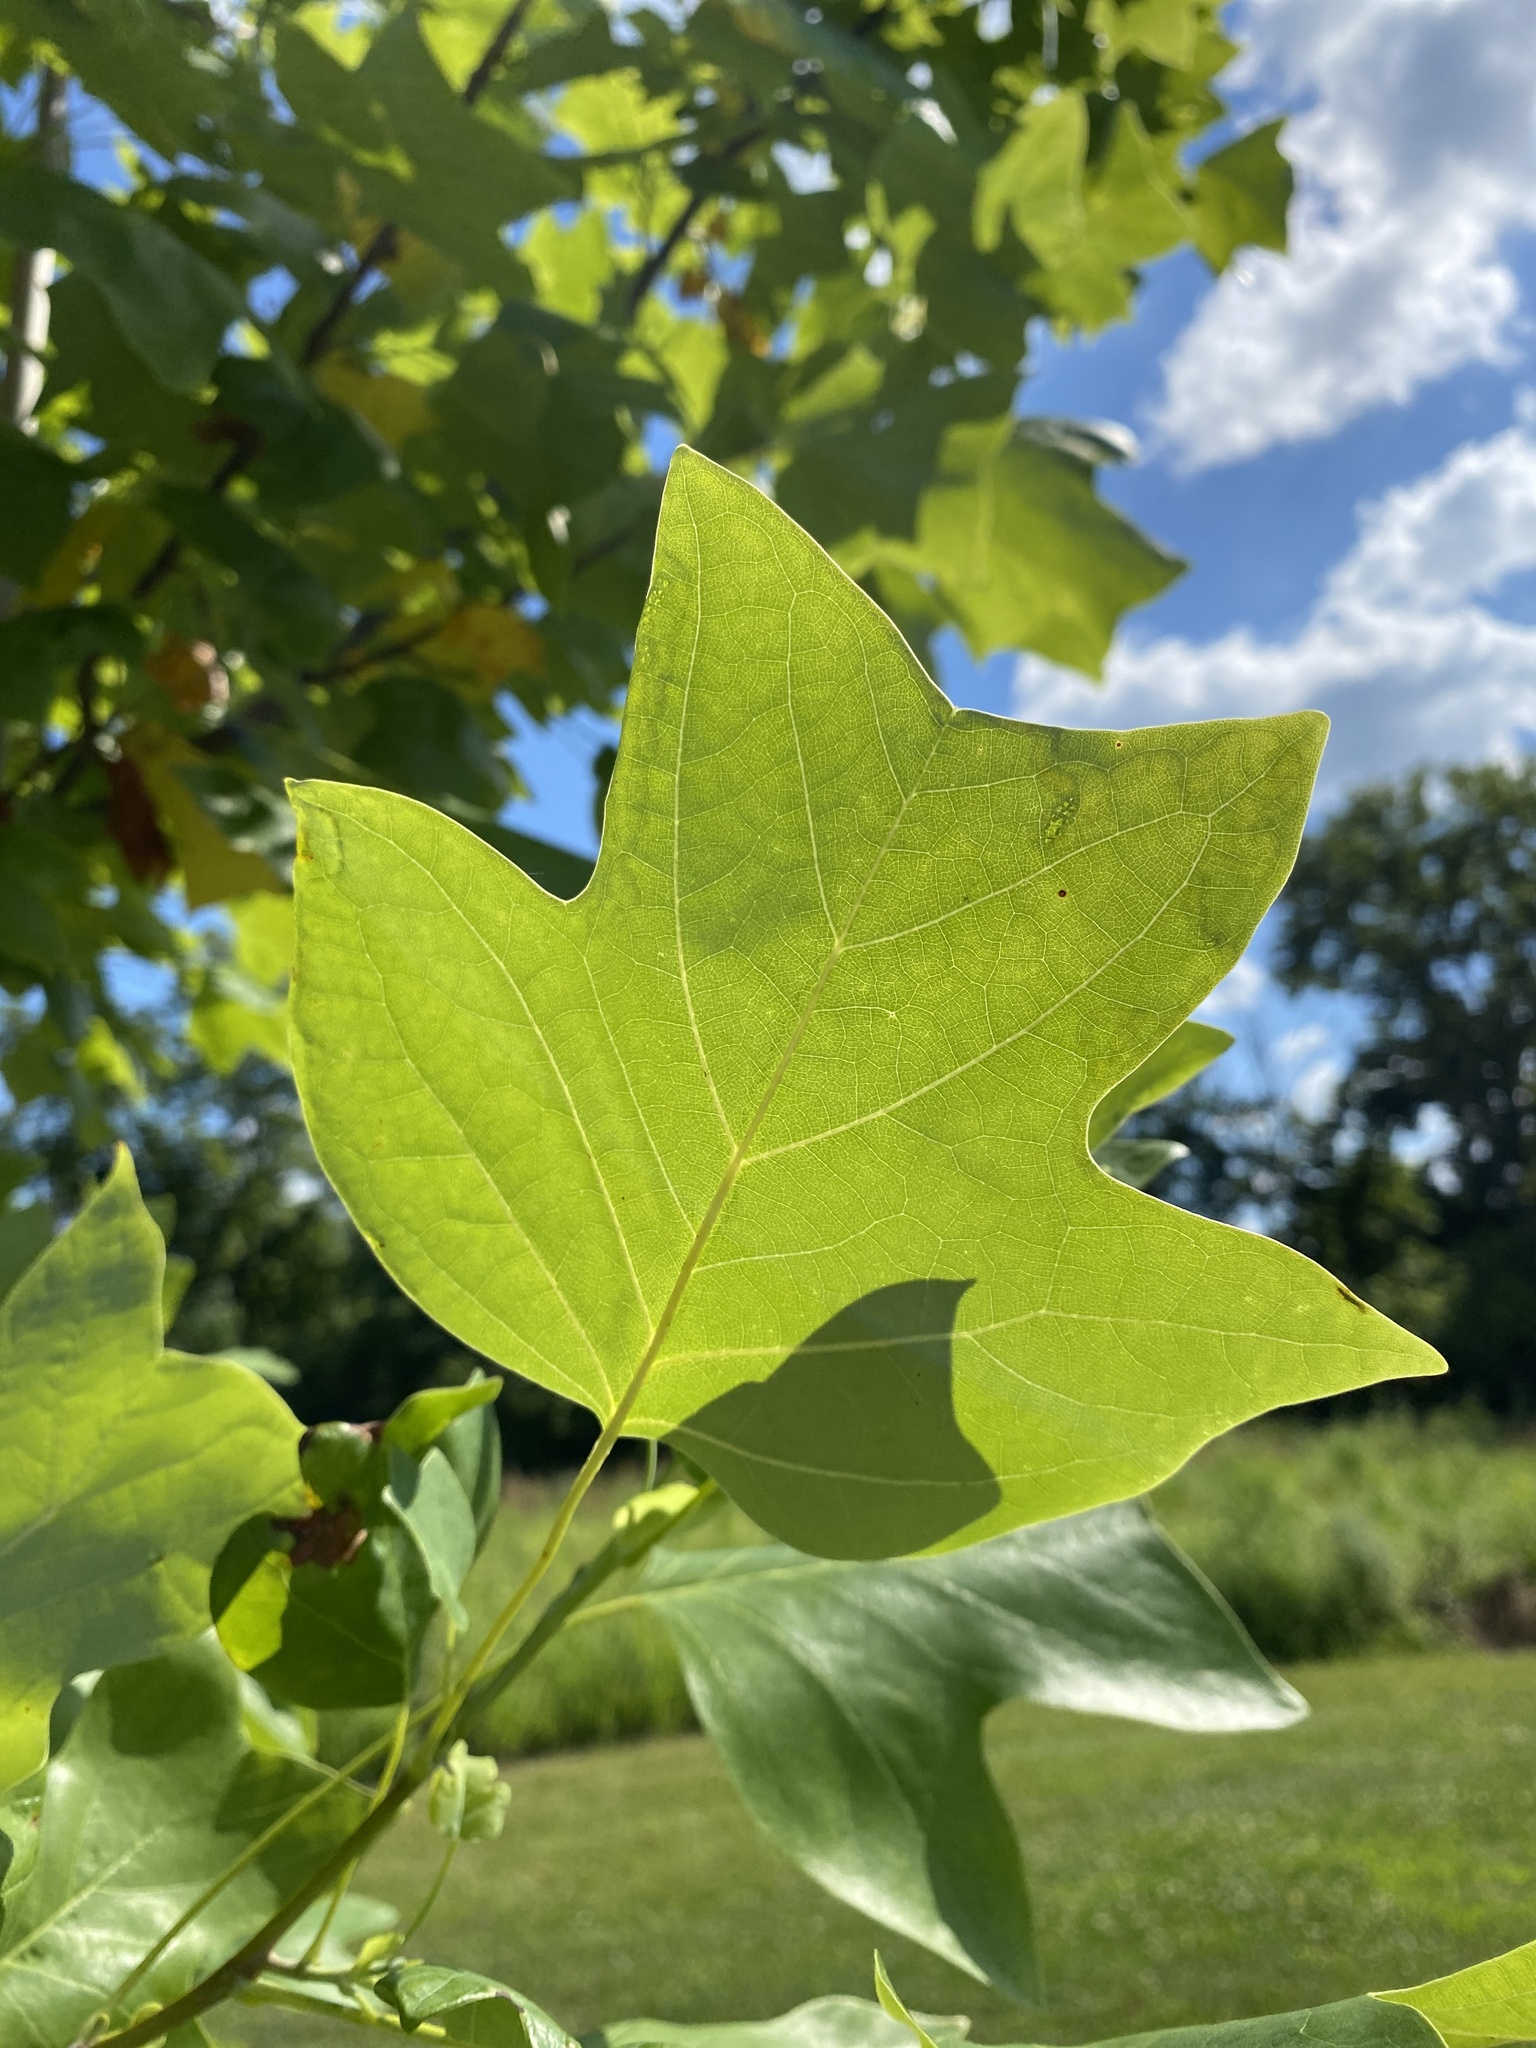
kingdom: Plantae
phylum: Tracheophyta
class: Magnoliopsida
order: Magnoliales
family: Magnoliaceae
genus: Liriodendron
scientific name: Liriodendron tulipifera
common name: Tulip tree
